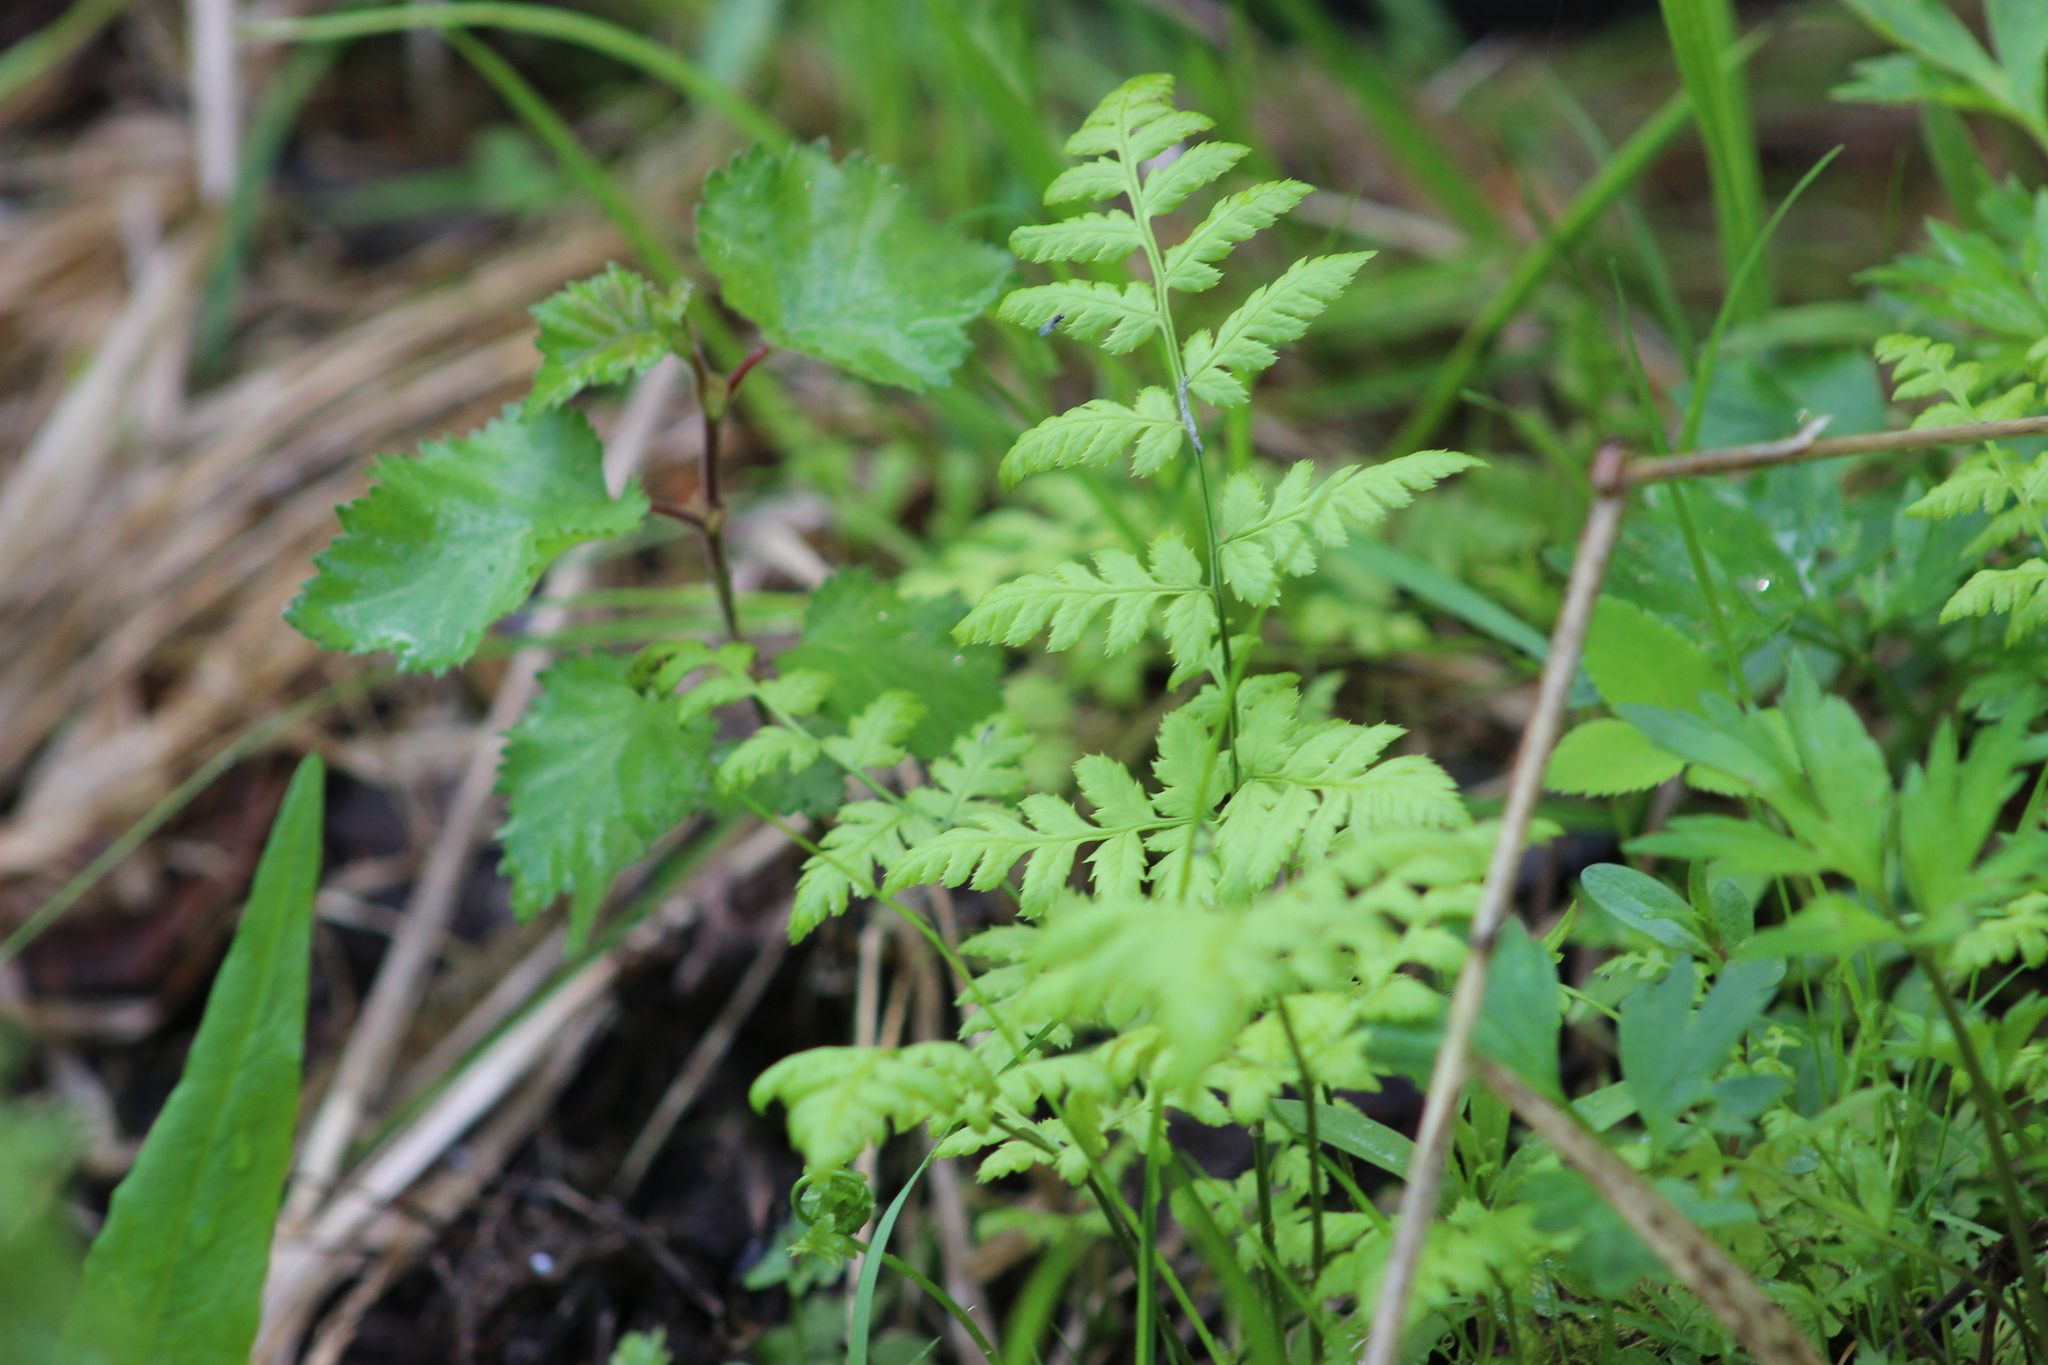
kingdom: Plantae
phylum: Tracheophyta
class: Polypodiopsida
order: Polypodiales
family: Dryopteridaceae
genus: Dryopteris
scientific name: Dryopteris carthusiana
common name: Narrow buckler-fern
